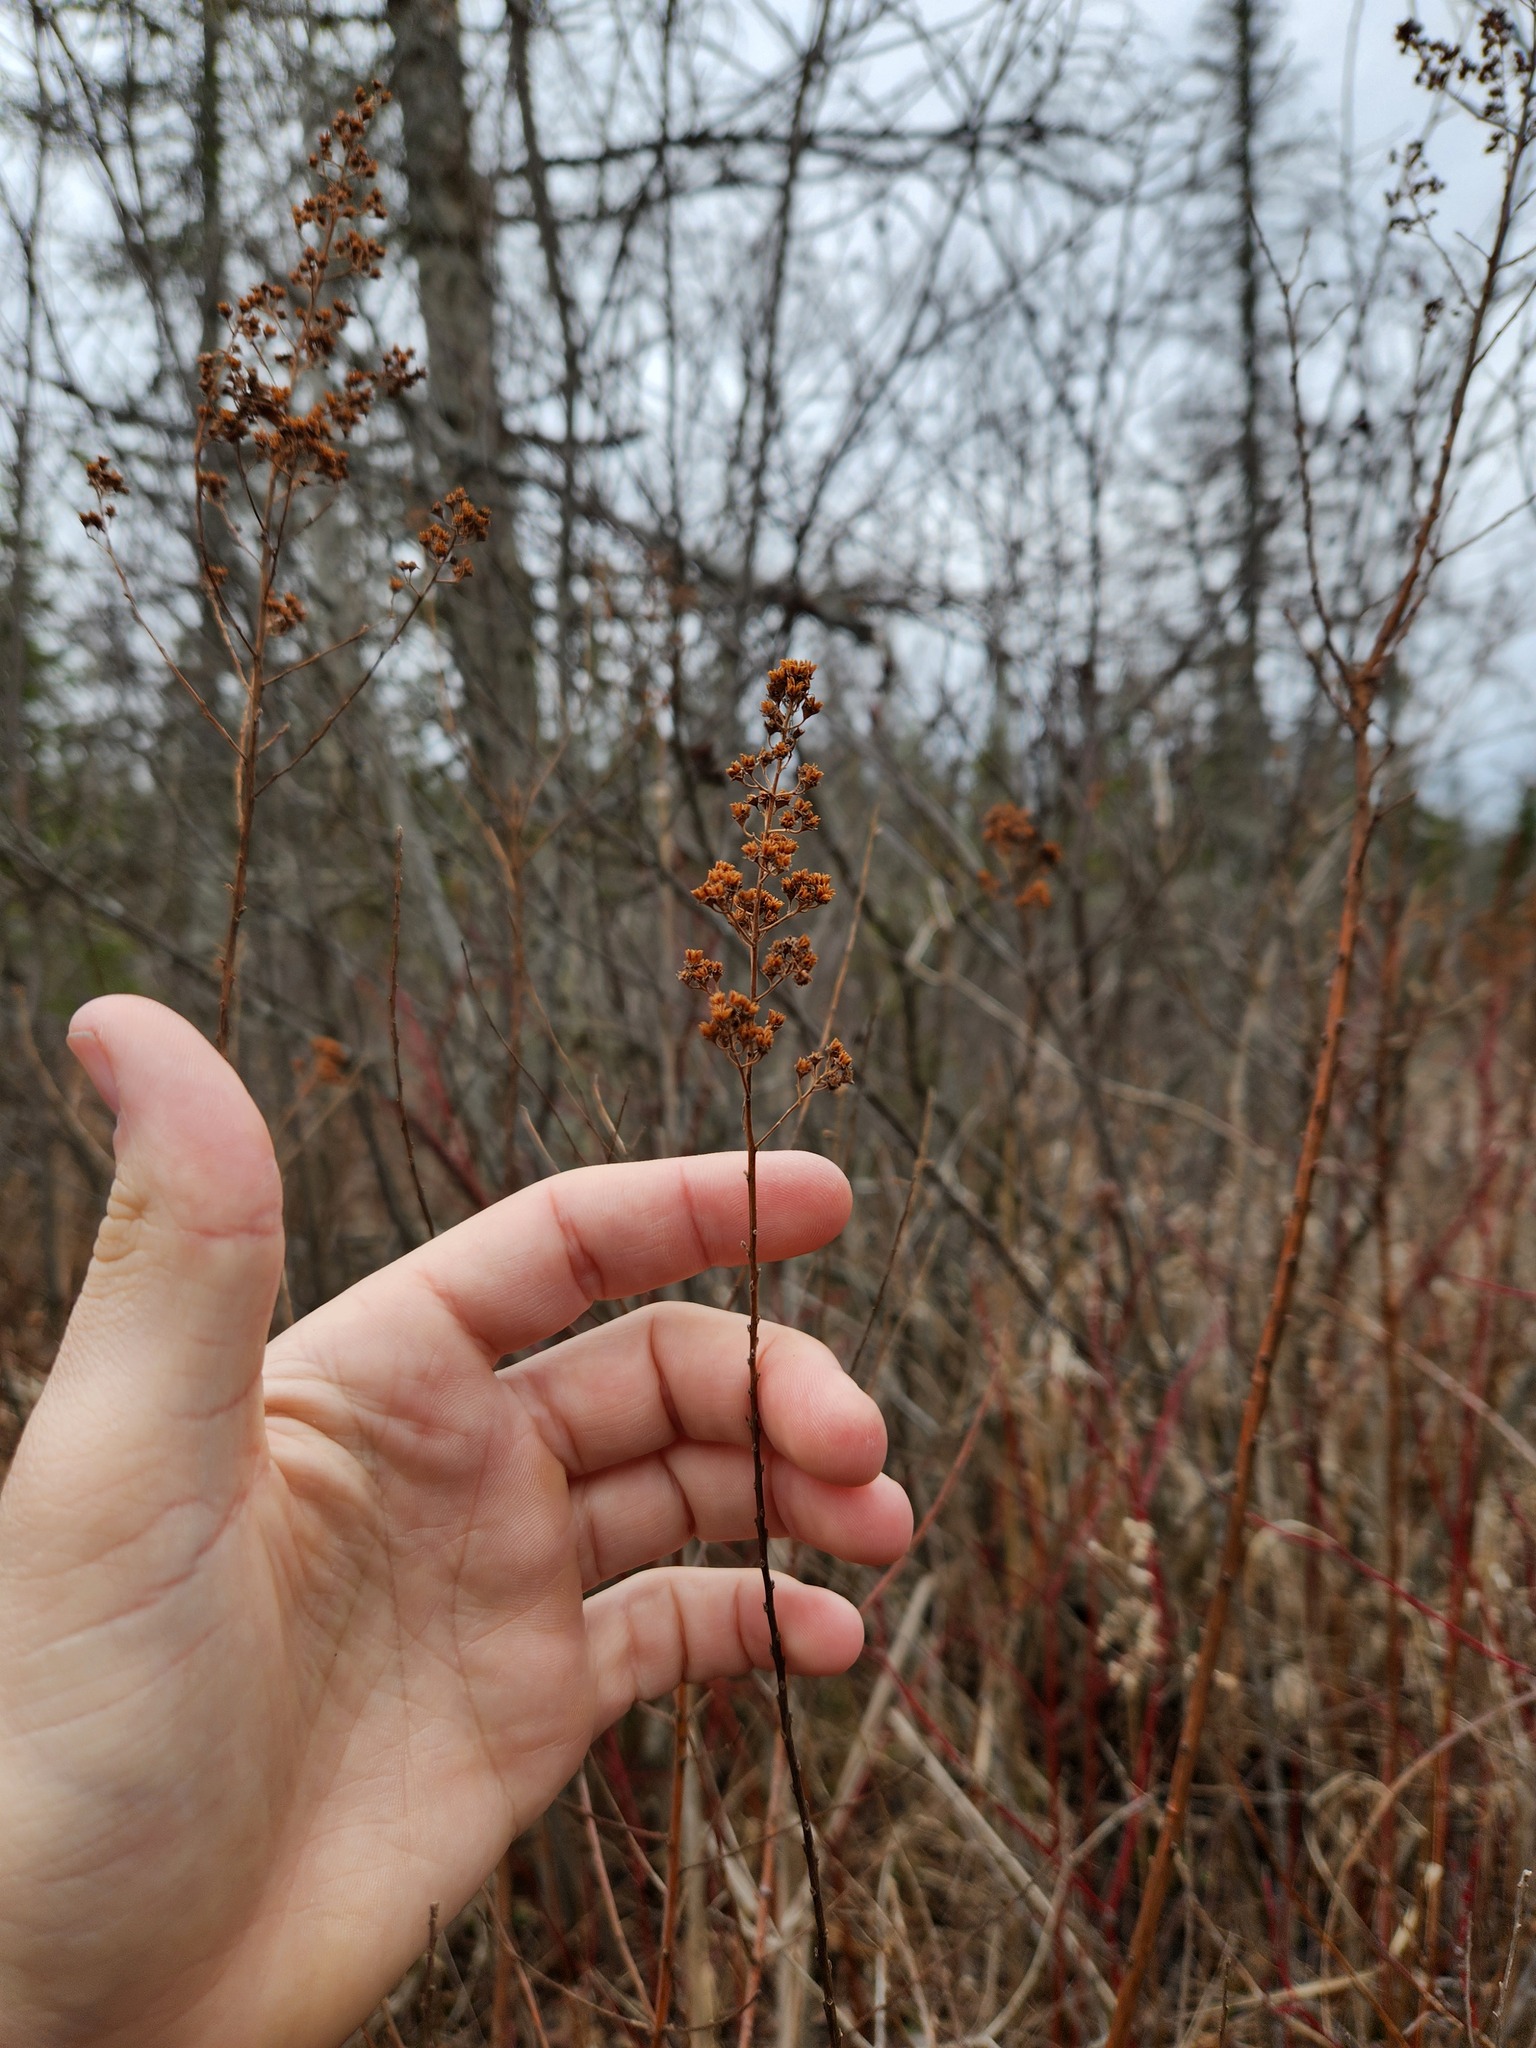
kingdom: Plantae
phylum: Tracheophyta
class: Magnoliopsida
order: Rosales
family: Rosaceae
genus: Spiraea
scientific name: Spiraea alba
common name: Pale bridewort
